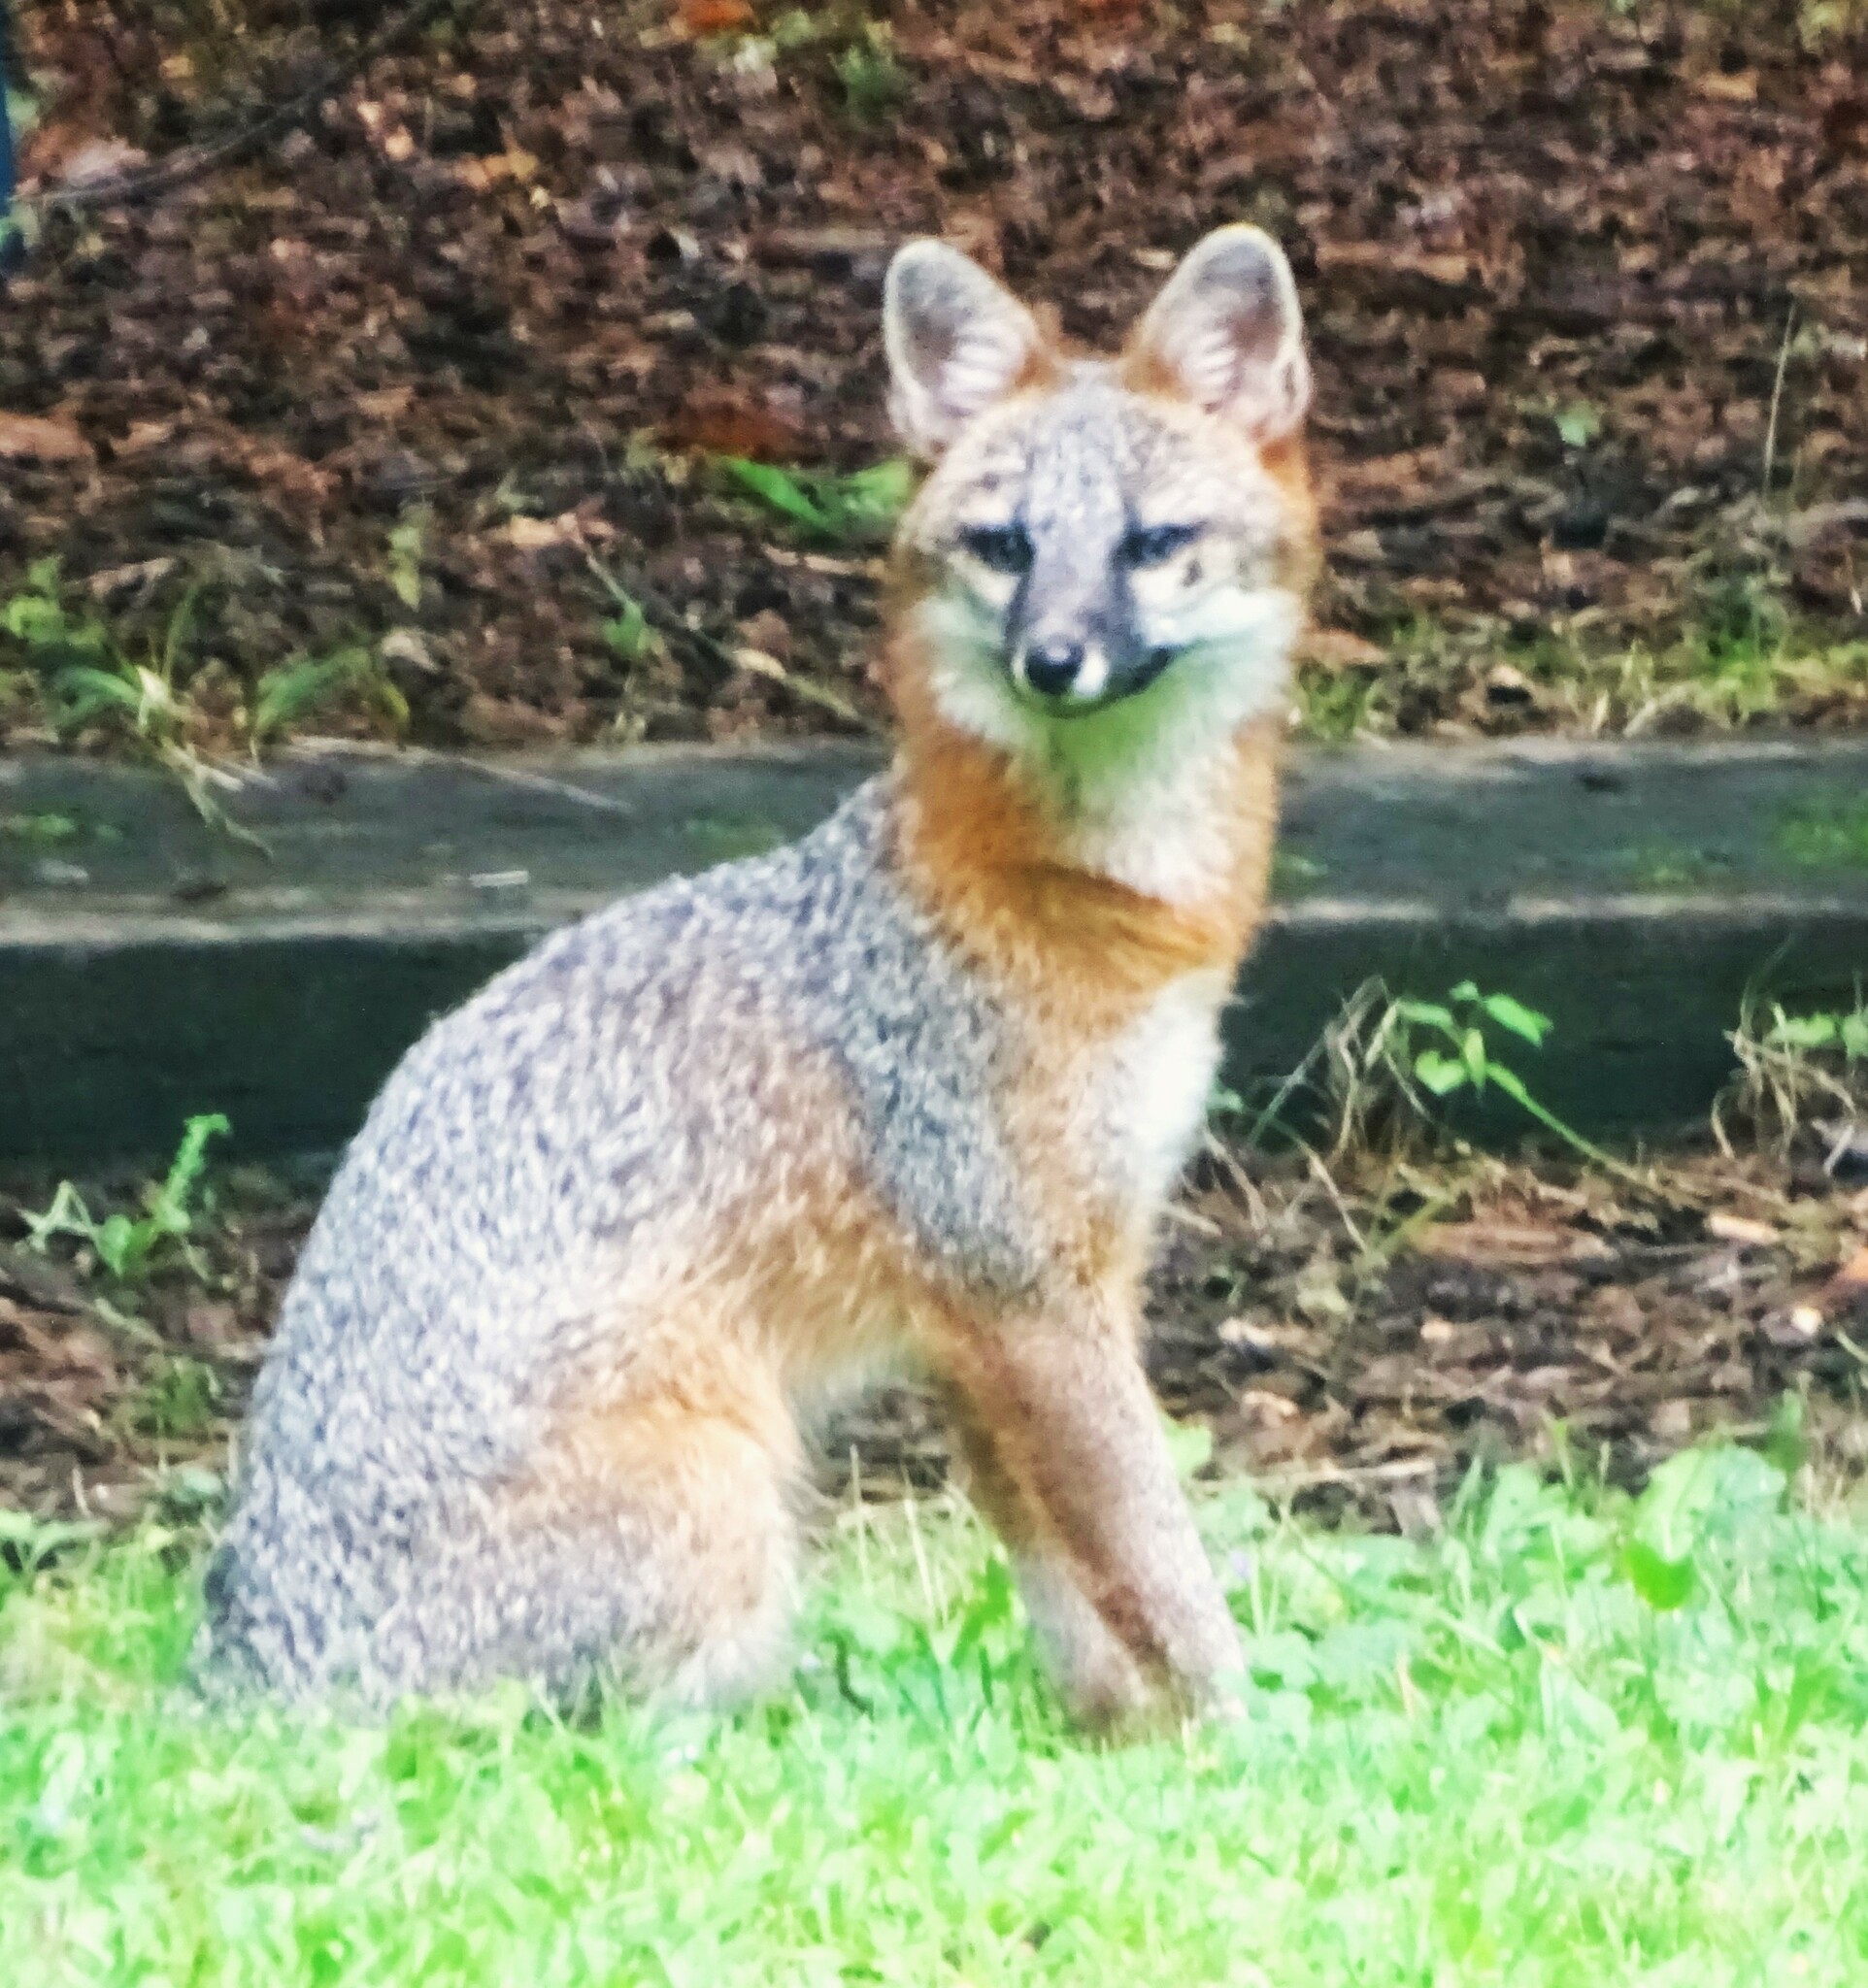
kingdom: Animalia
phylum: Chordata
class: Mammalia
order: Carnivora
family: Canidae
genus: Urocyon
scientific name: Urocyon cinereoargenteus
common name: Gray fox
